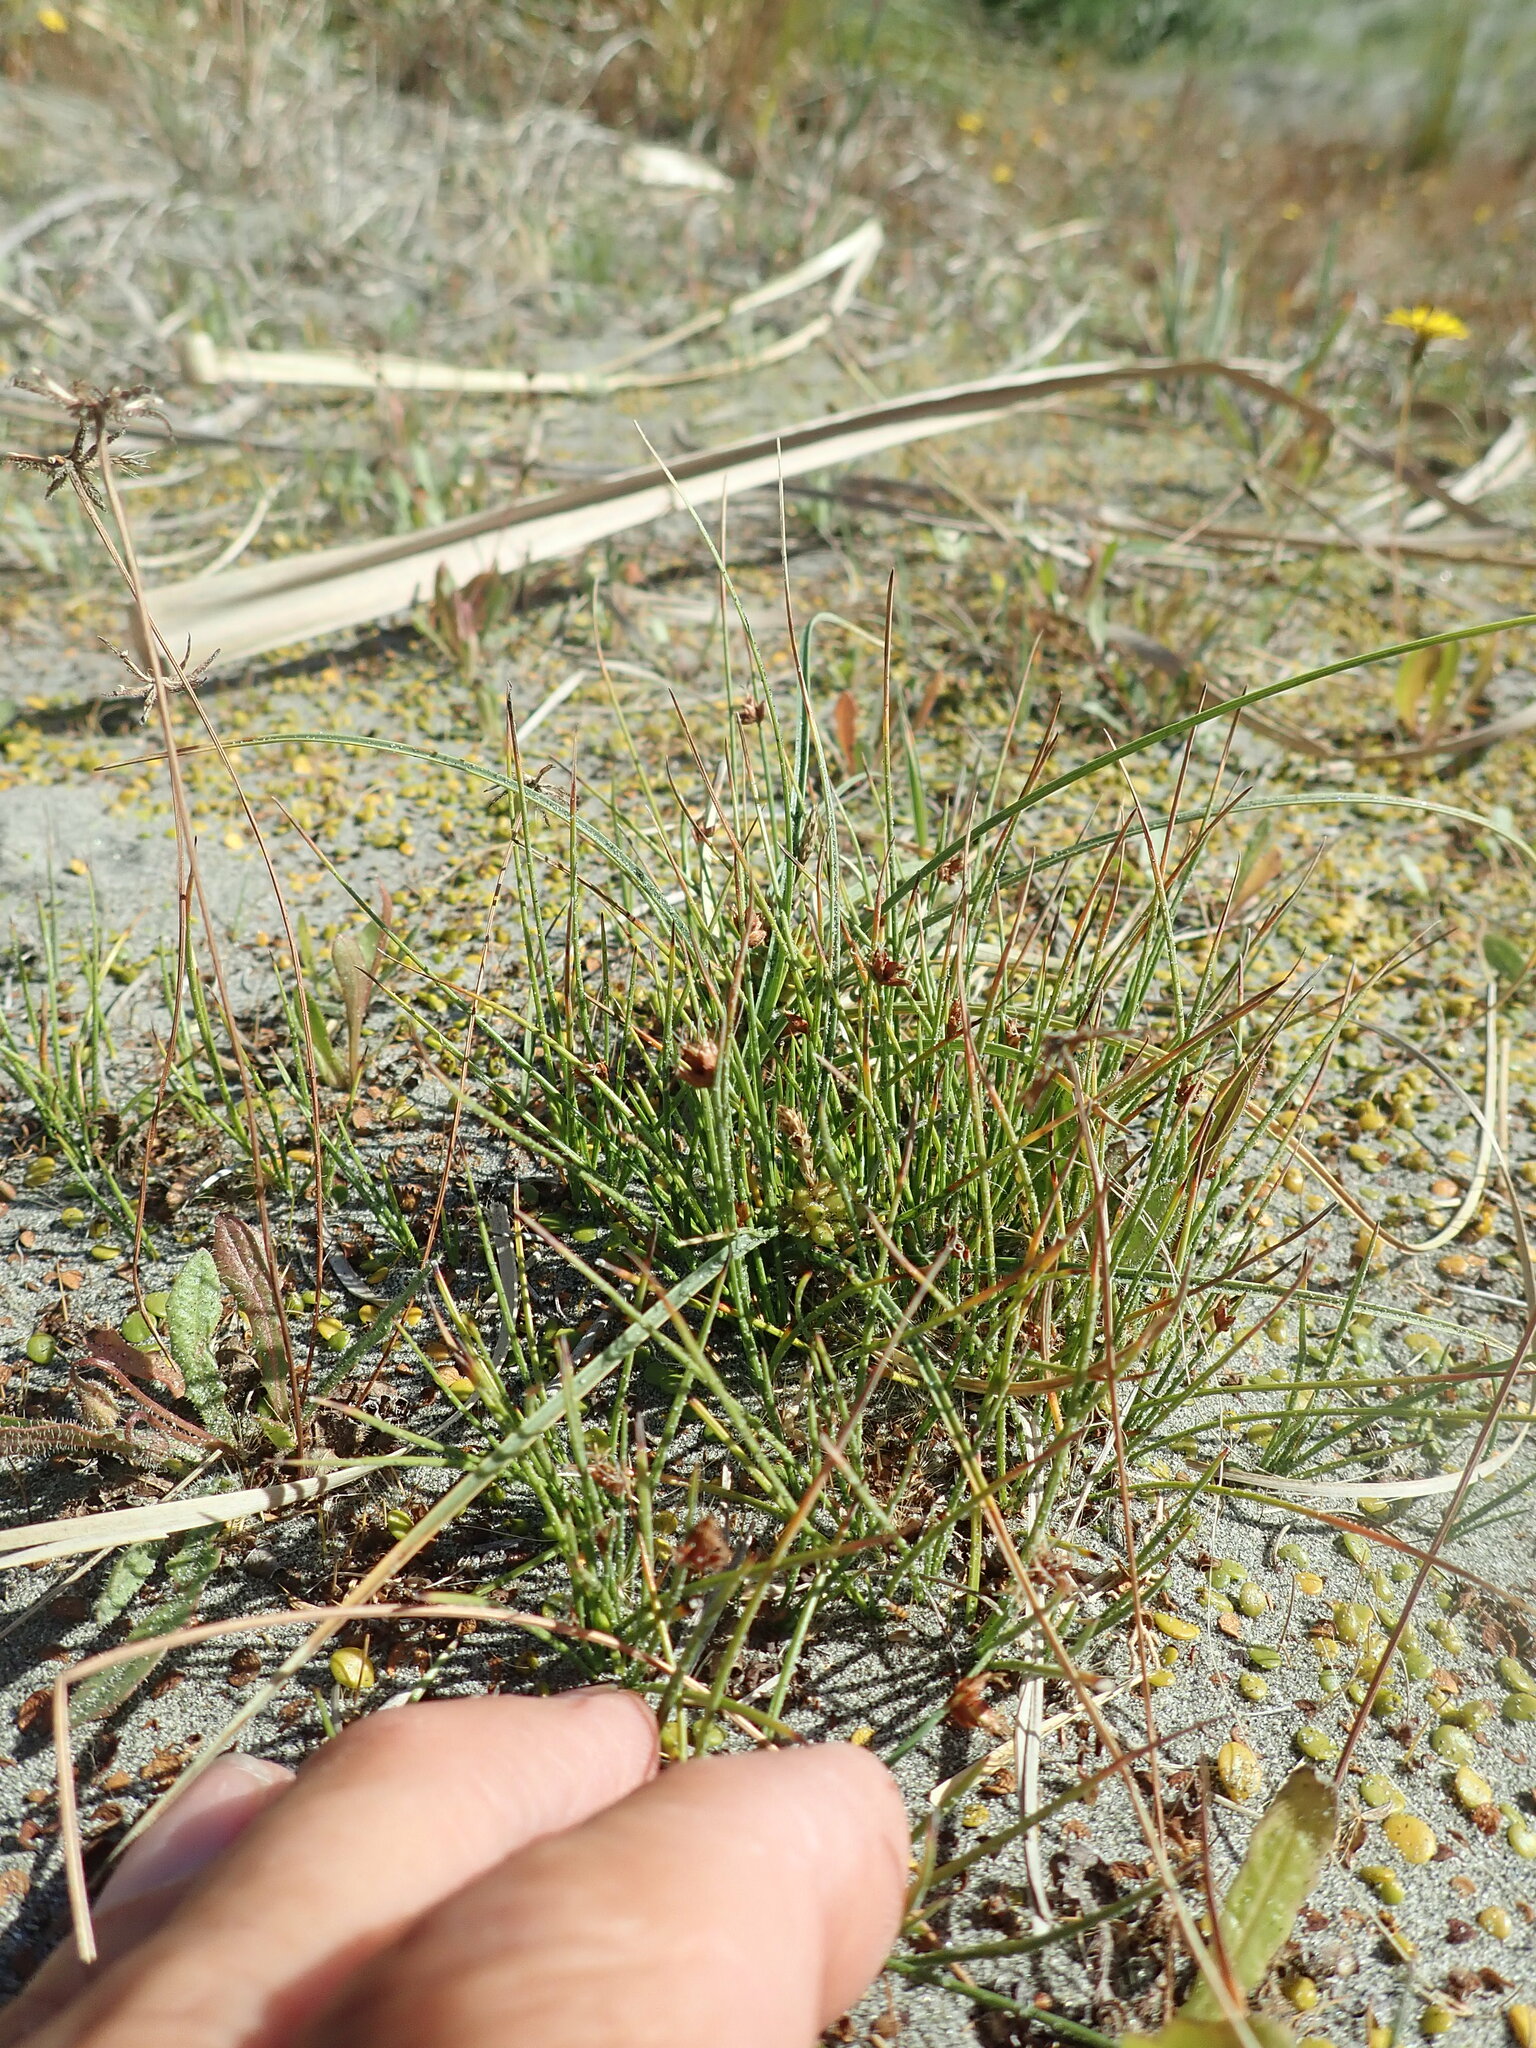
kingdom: Plantae
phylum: Tracheophyta
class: Liliopsida
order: Poales
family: Cyperaceae
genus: Carex
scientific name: Carex pumila
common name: Dwarf sedge
